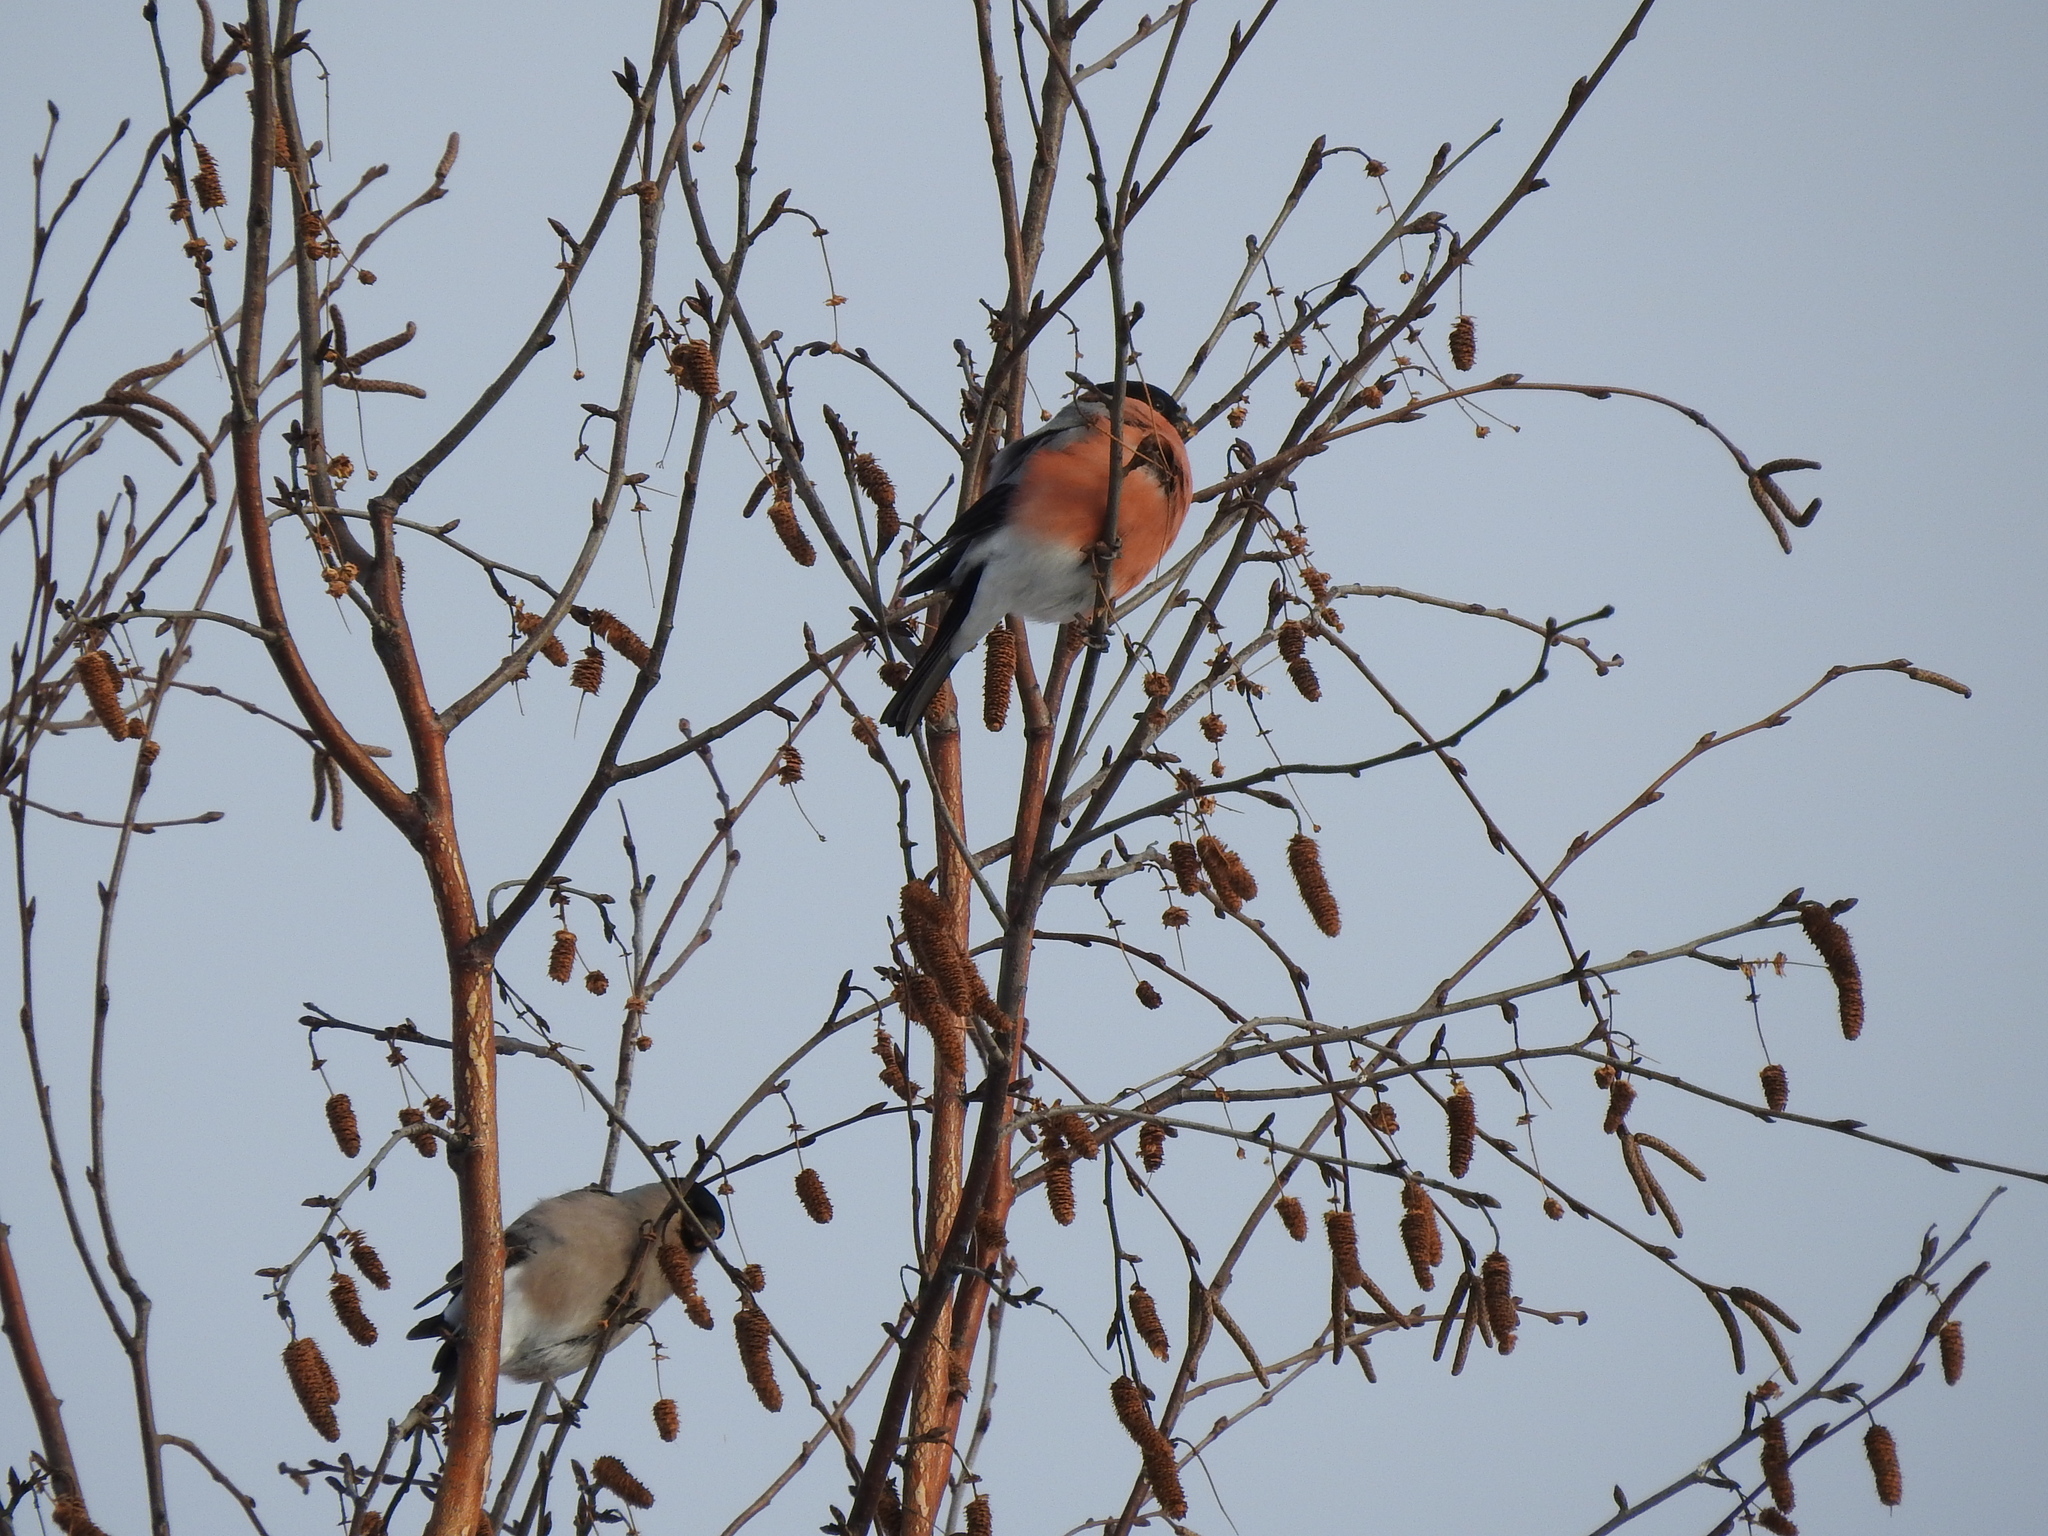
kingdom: Animalia
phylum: Chordata
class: Aves
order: Passeriformes
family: Fringillidae
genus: Pyrrhula
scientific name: Pyrrhula pyrrhula
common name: Eurasian bullfinch
